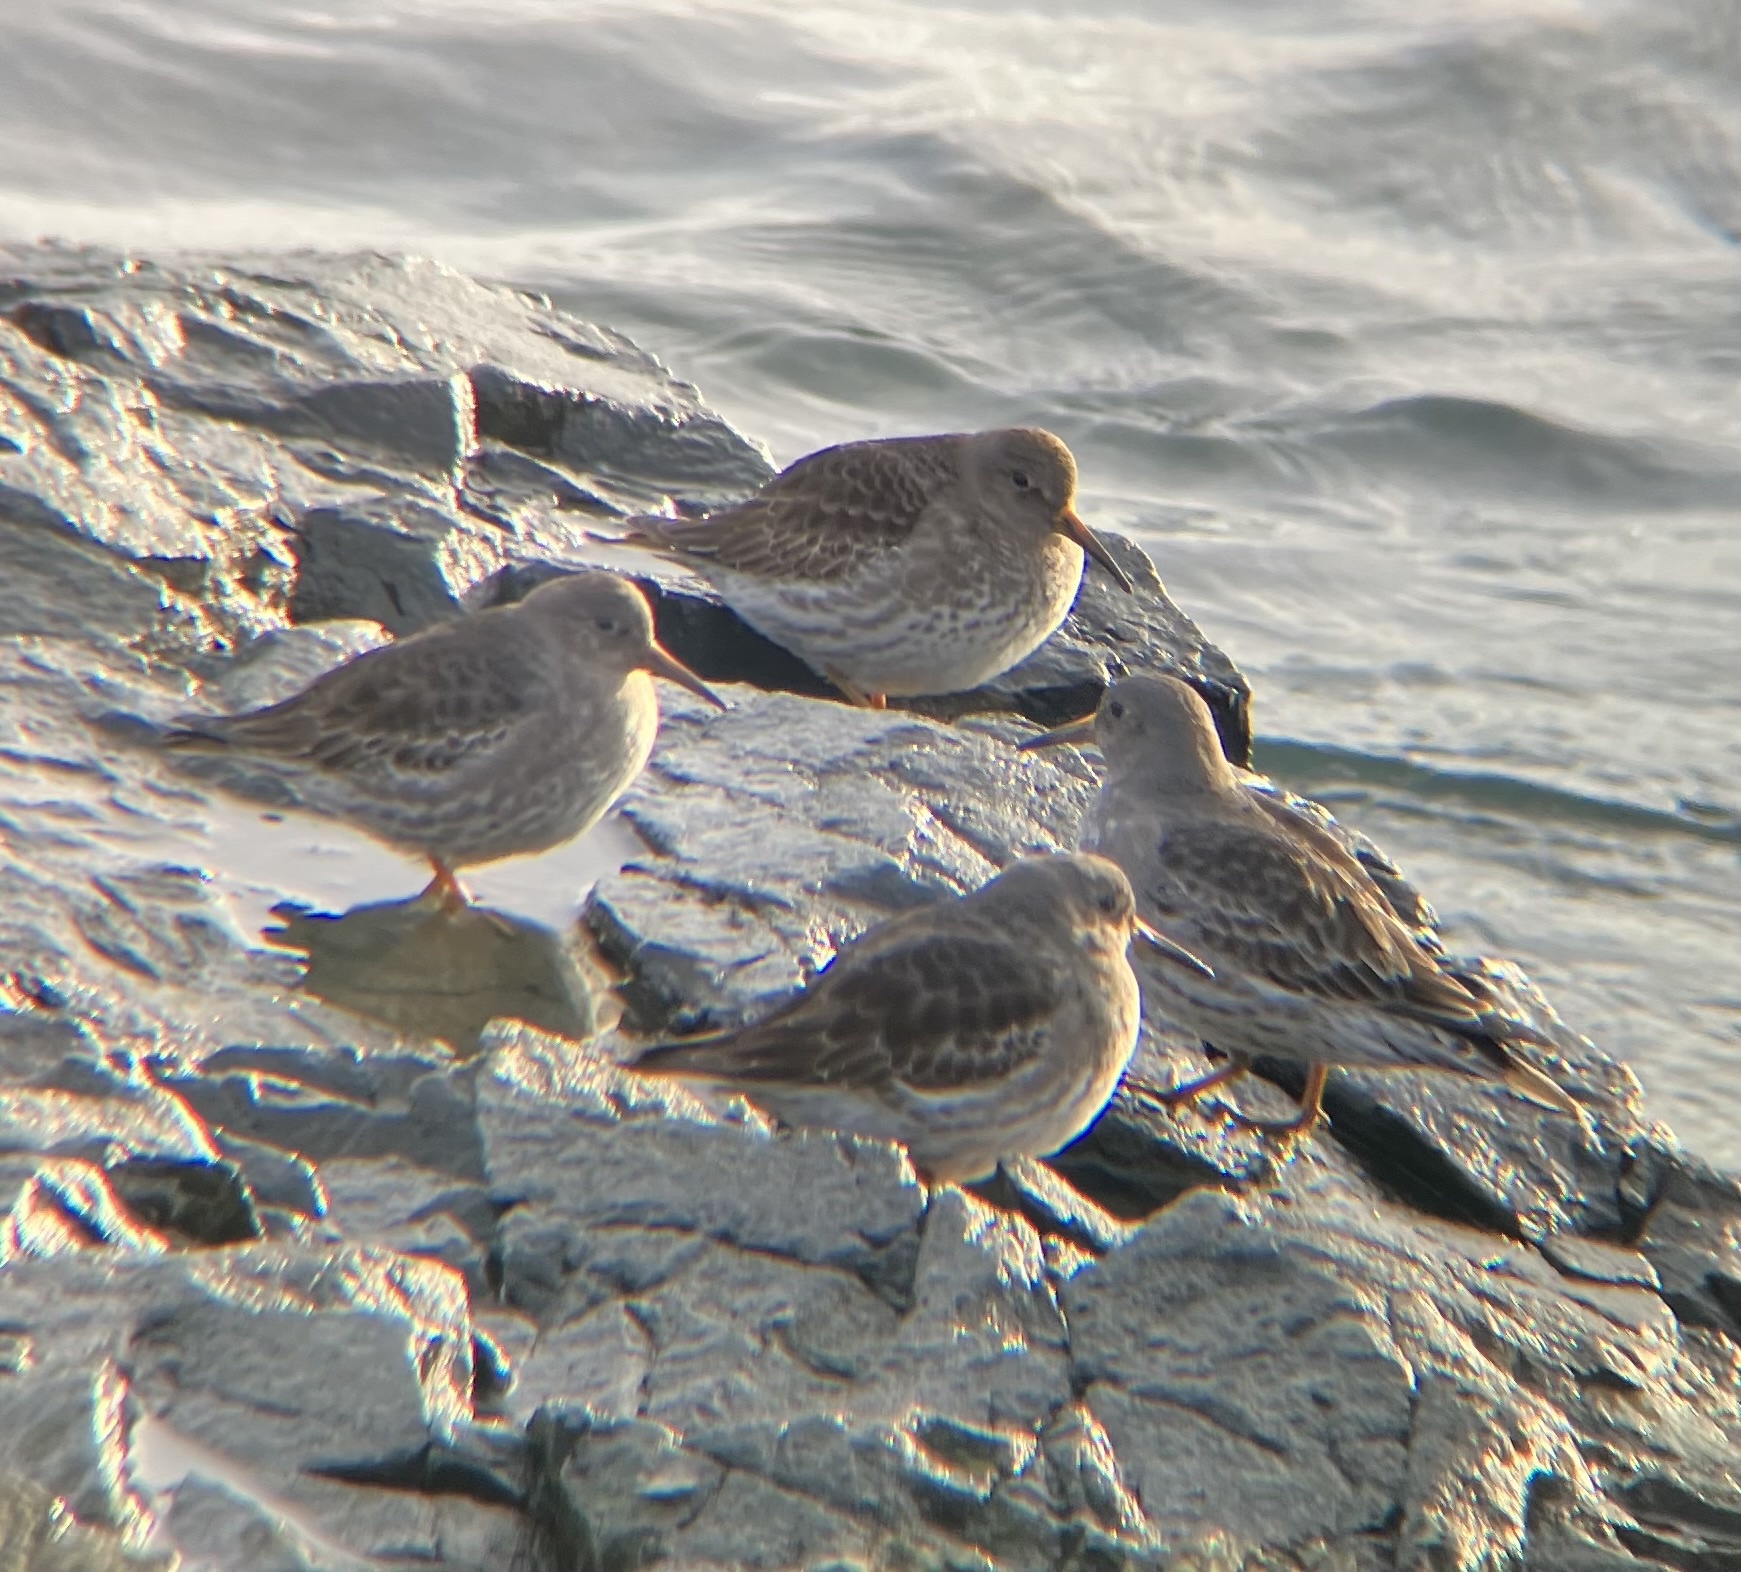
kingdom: Animalia
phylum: Chordata
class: Aves
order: Charadriiformes
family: Scolopacidae
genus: Calidris
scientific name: Calidris maritima
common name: Purple sandpiper
